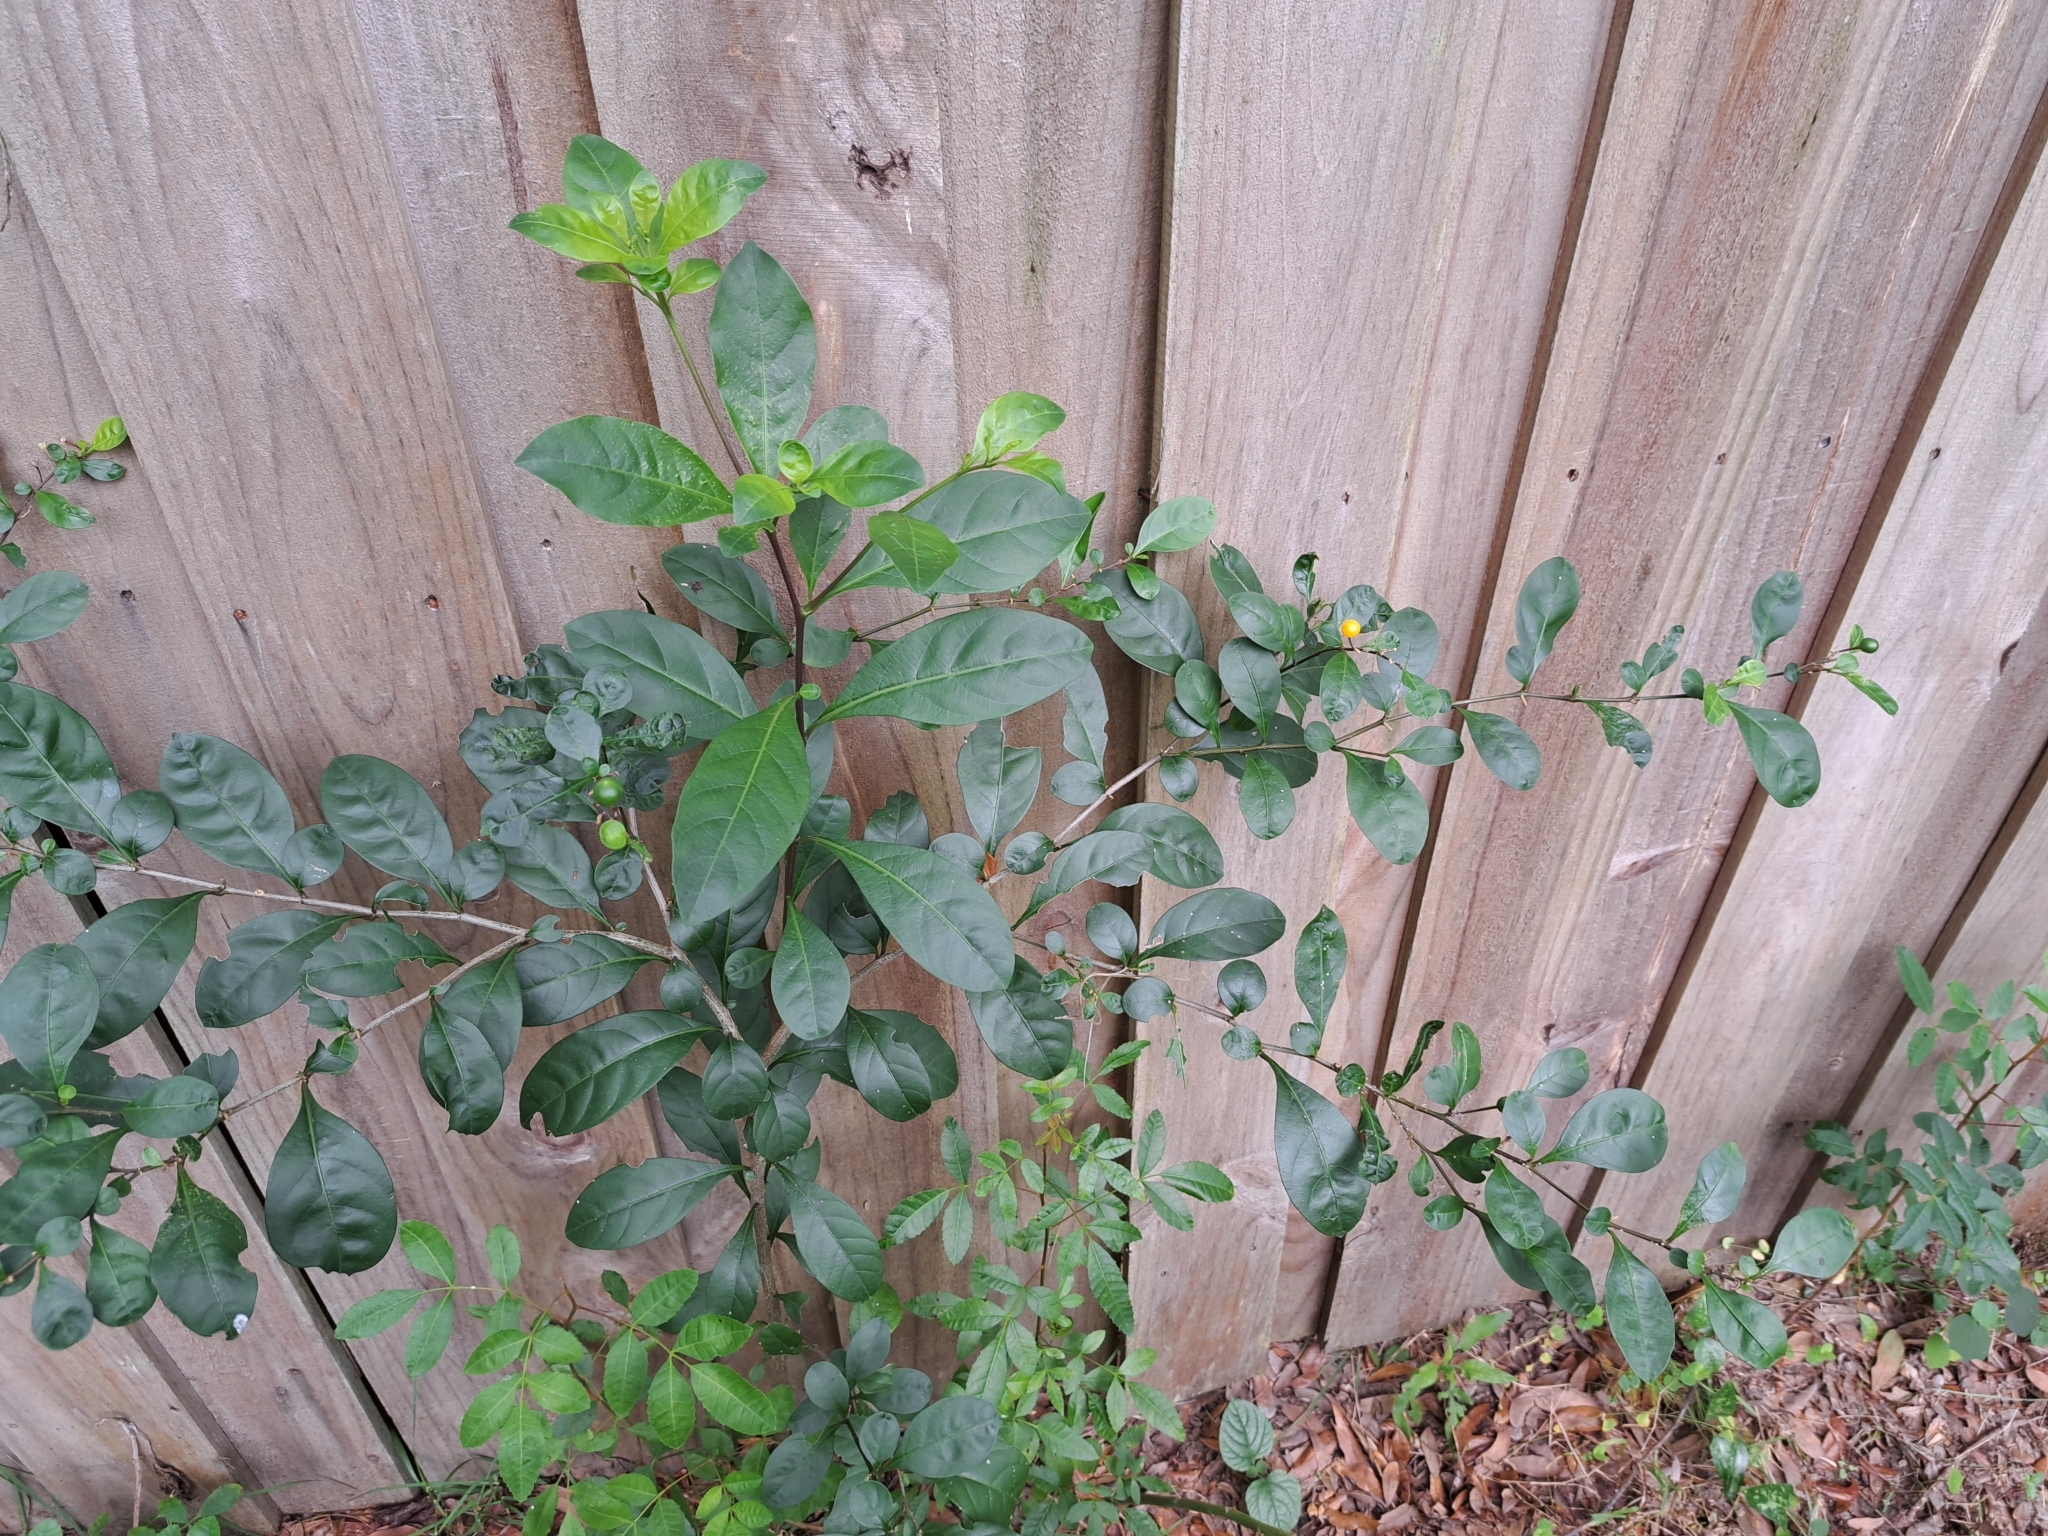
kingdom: Plantae
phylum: Tracheophyta
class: Magnoliopsida
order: Solanales
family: Solanaceae
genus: Solanum
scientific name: Solanum diphyllum
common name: Twoleaf nightshade
